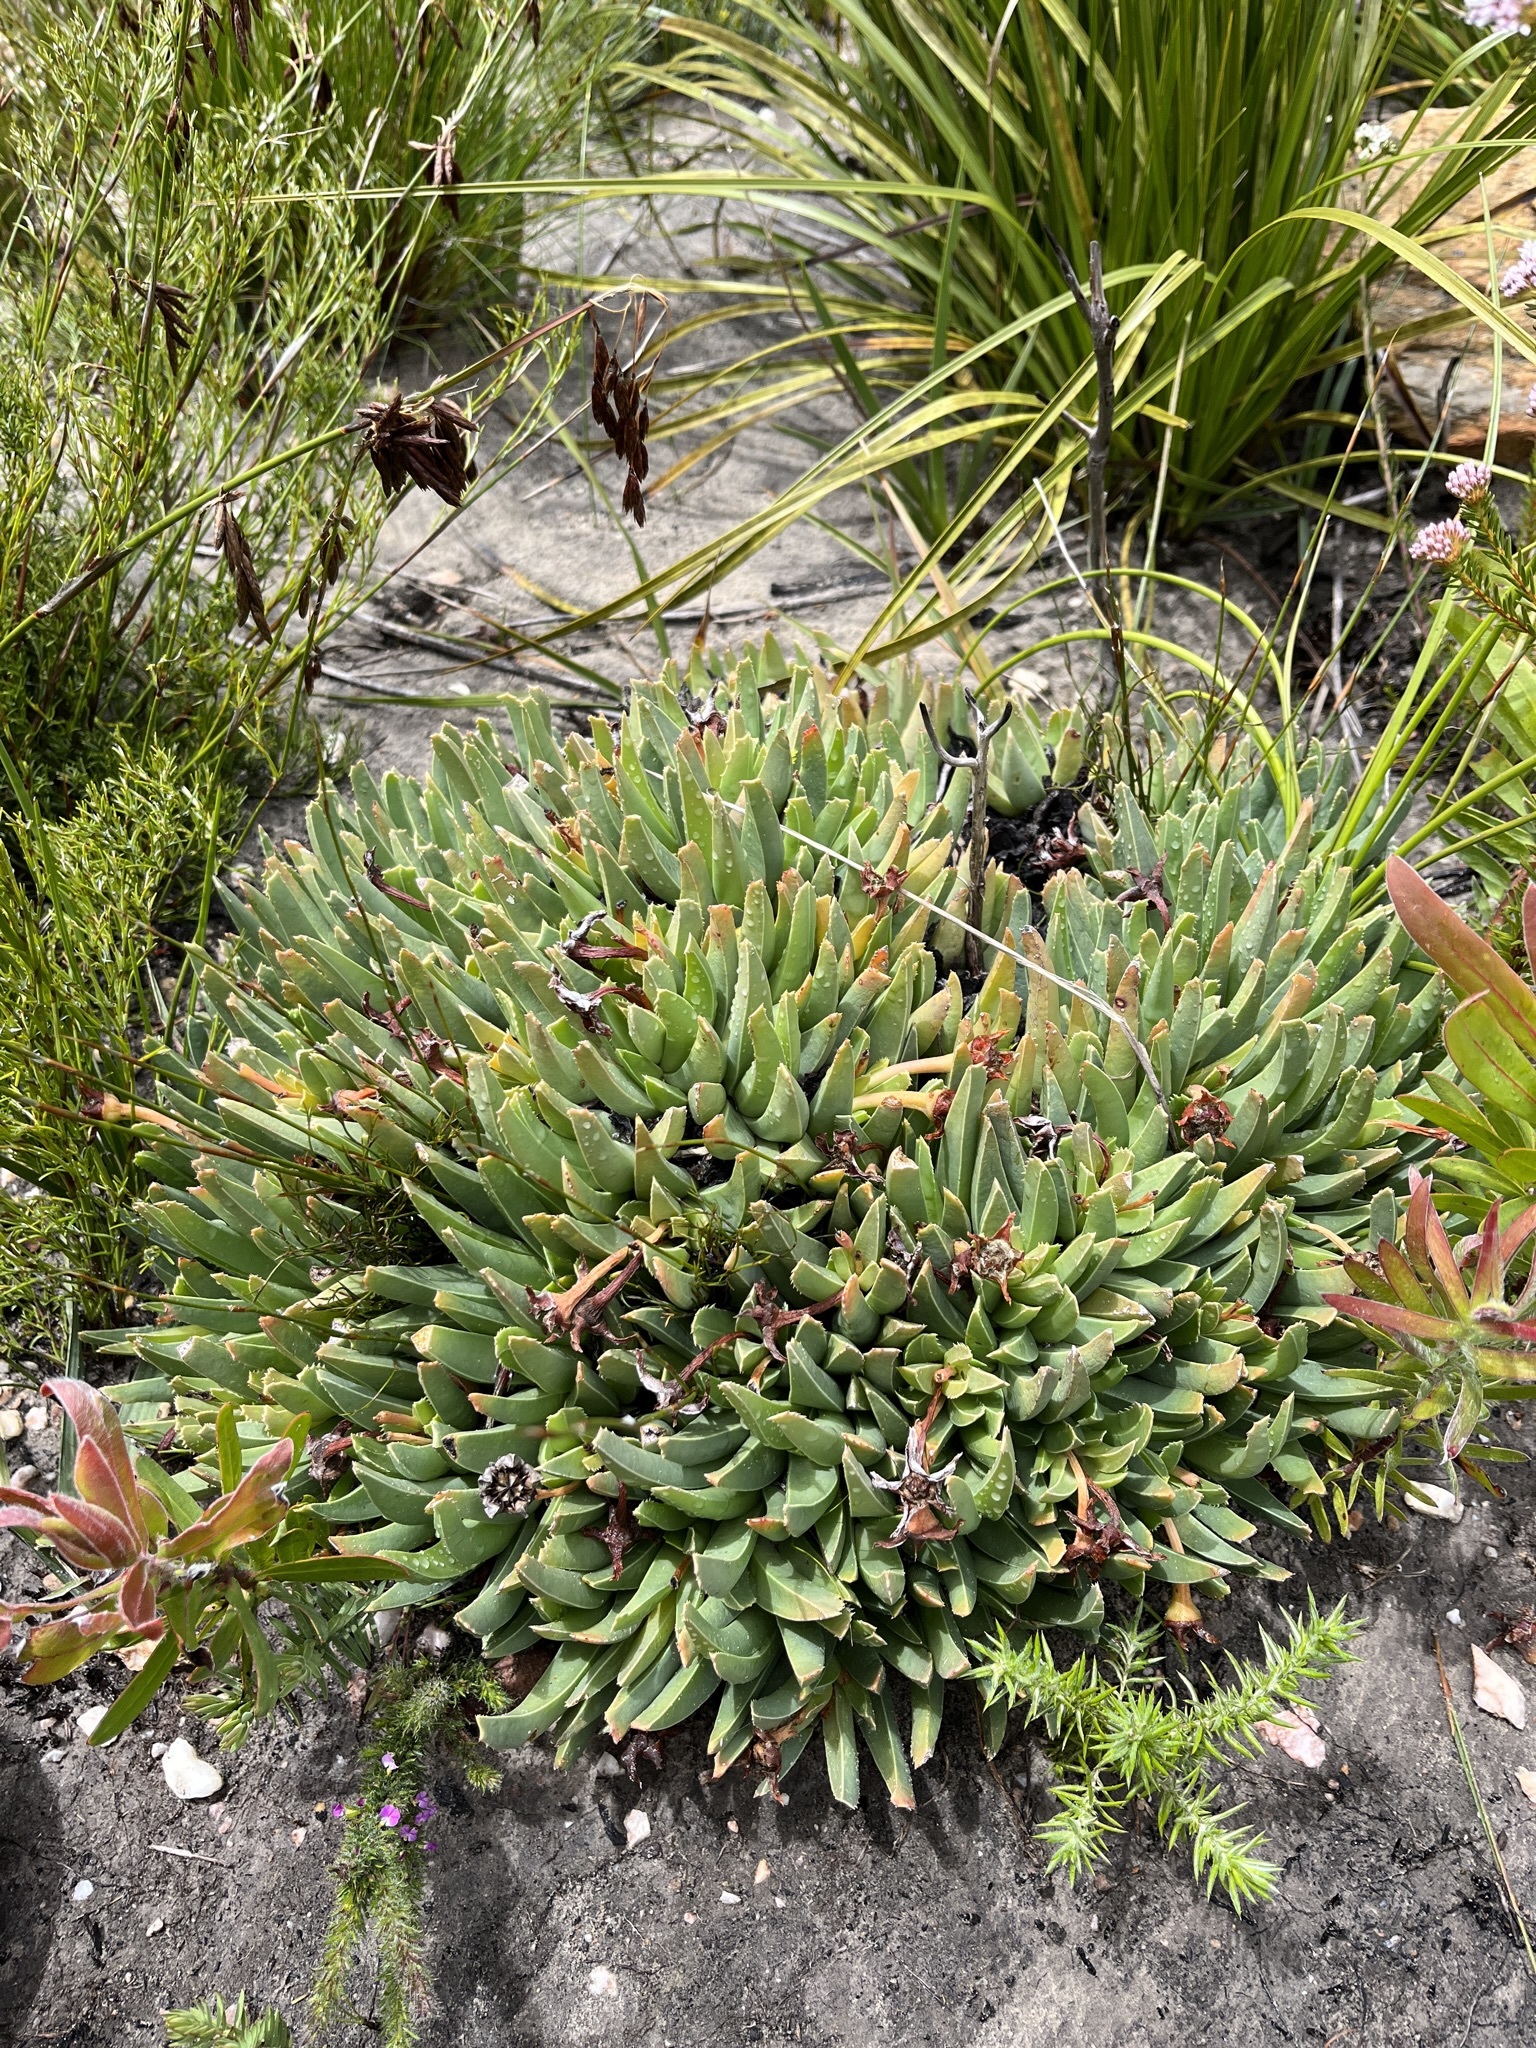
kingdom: Plantae
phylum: Tracheophyta
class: Magnoliopsida
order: Caryophyllales
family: Aizoaceae
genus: Acrodon
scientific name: Acrodon bellidiflorus
